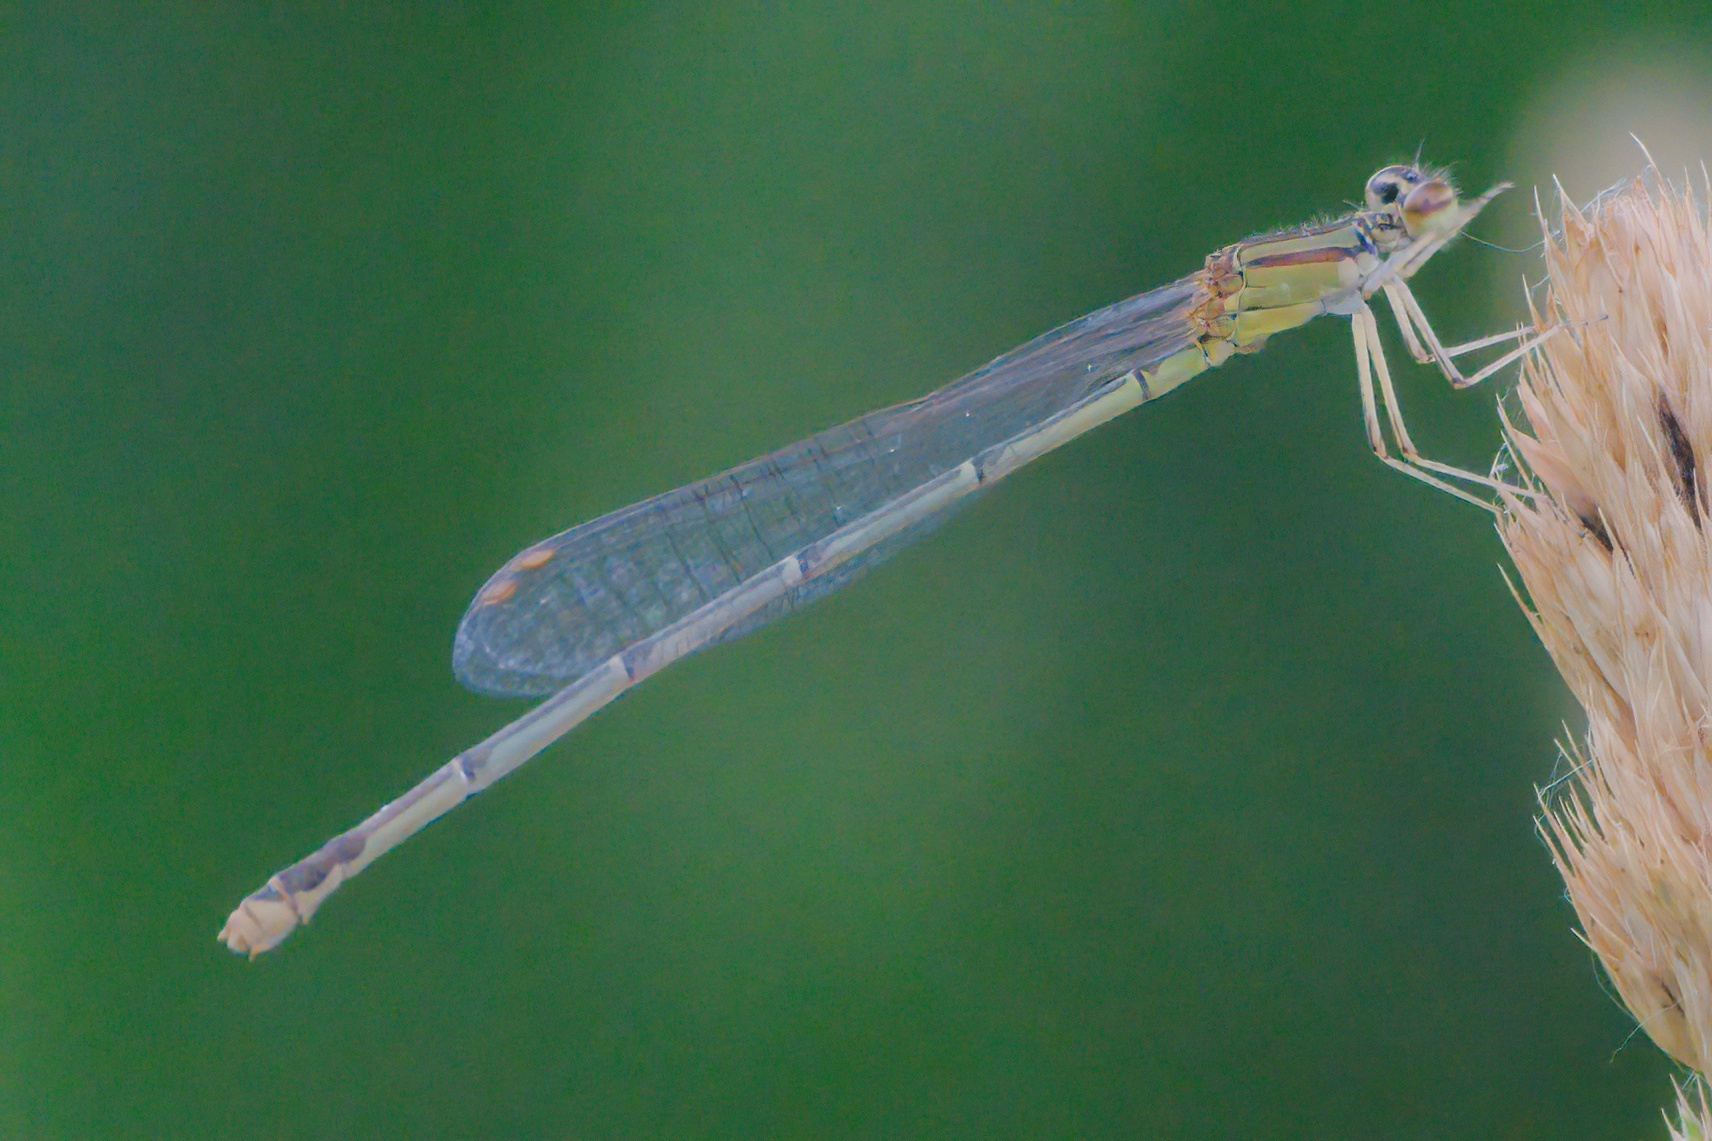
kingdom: Animalia
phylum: Arthropoda
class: Insecta
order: Odonata
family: Coenagrionidae
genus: Enallagma
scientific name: Enallagma signatum
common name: Orange bluet
